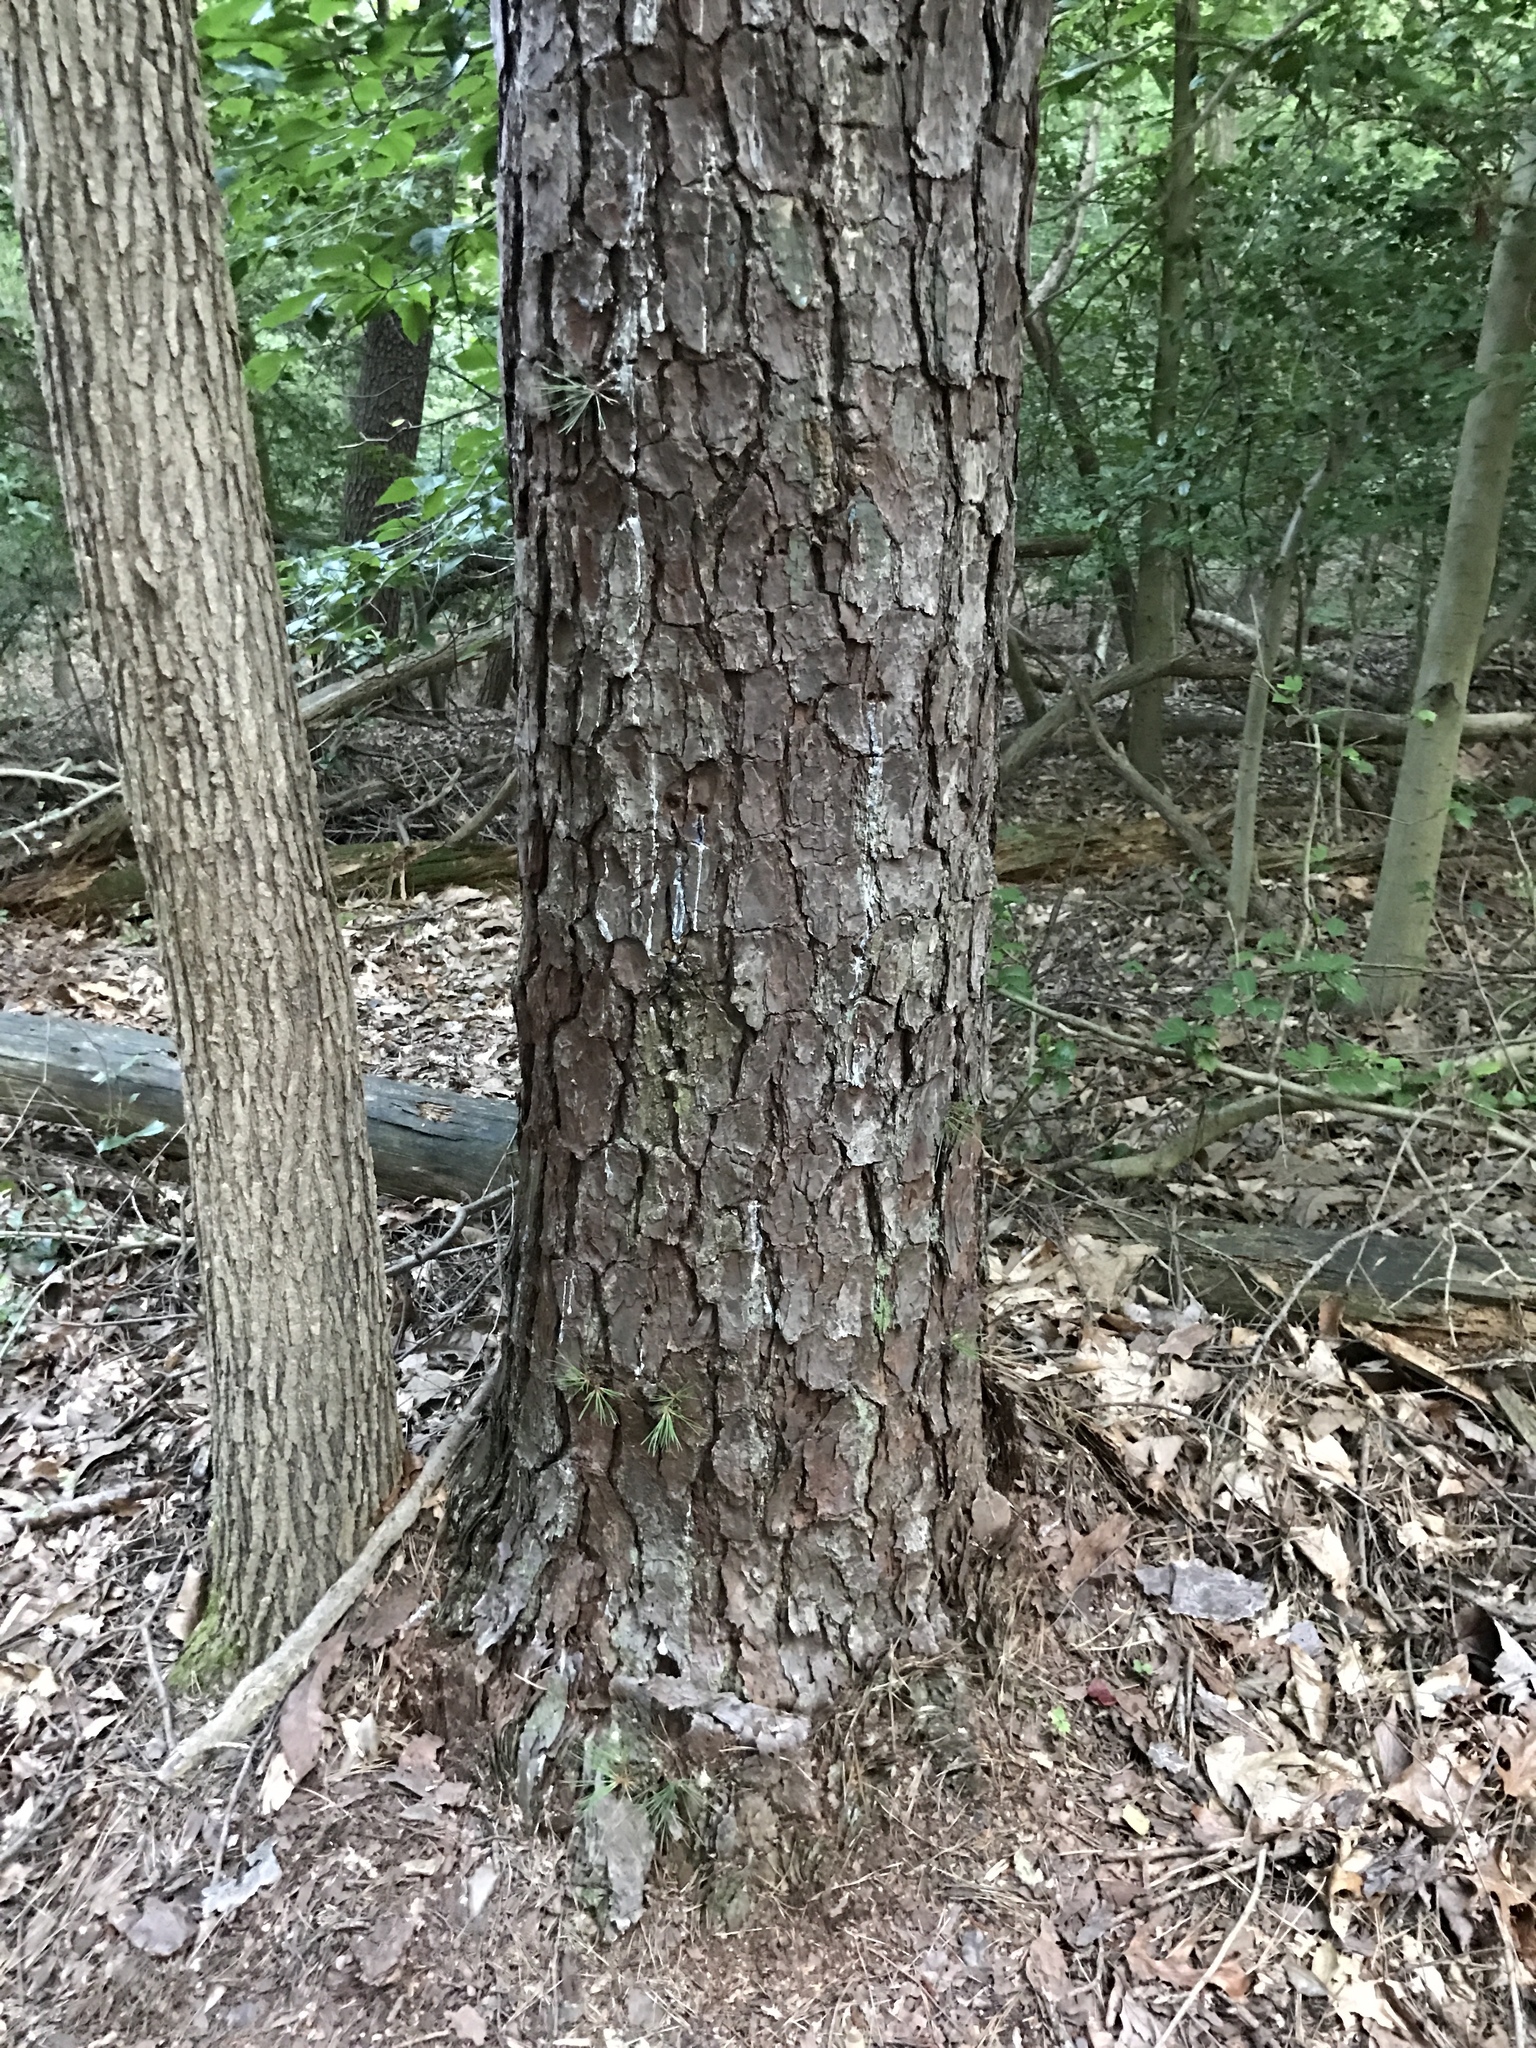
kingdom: Plantae
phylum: Tracheophyta
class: Pinopsida
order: Pinales
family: Pinaceae
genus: Pinus
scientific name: Pinus rigida
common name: Pitch pine
